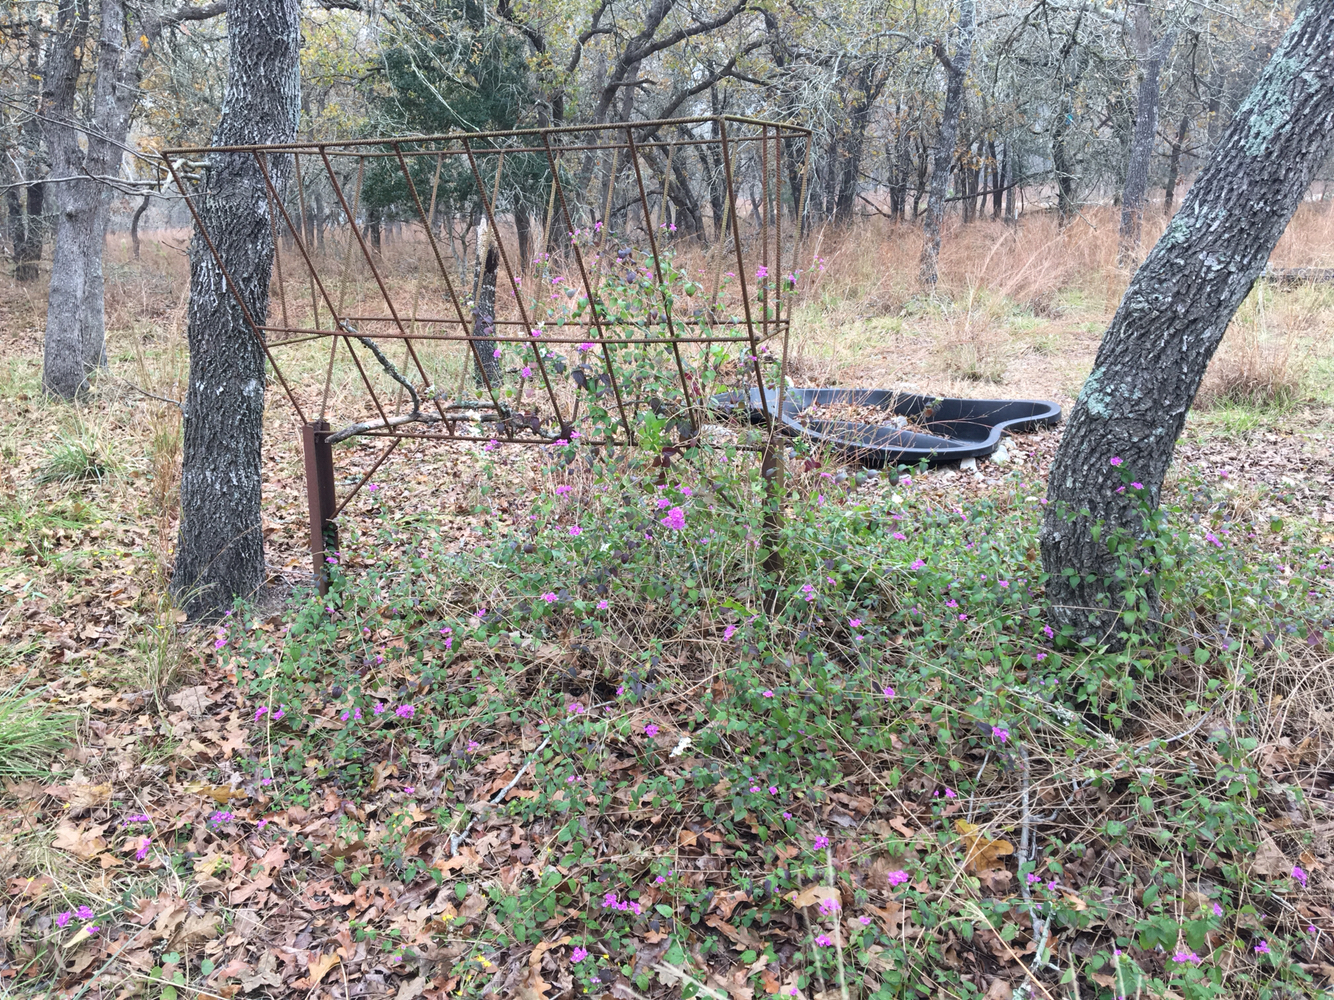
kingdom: Animalia
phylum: Arthropoda
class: Insecta
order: Hemiptera
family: Coreidae
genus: Hypselonotus
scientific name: Hypselonotus punctiventris
